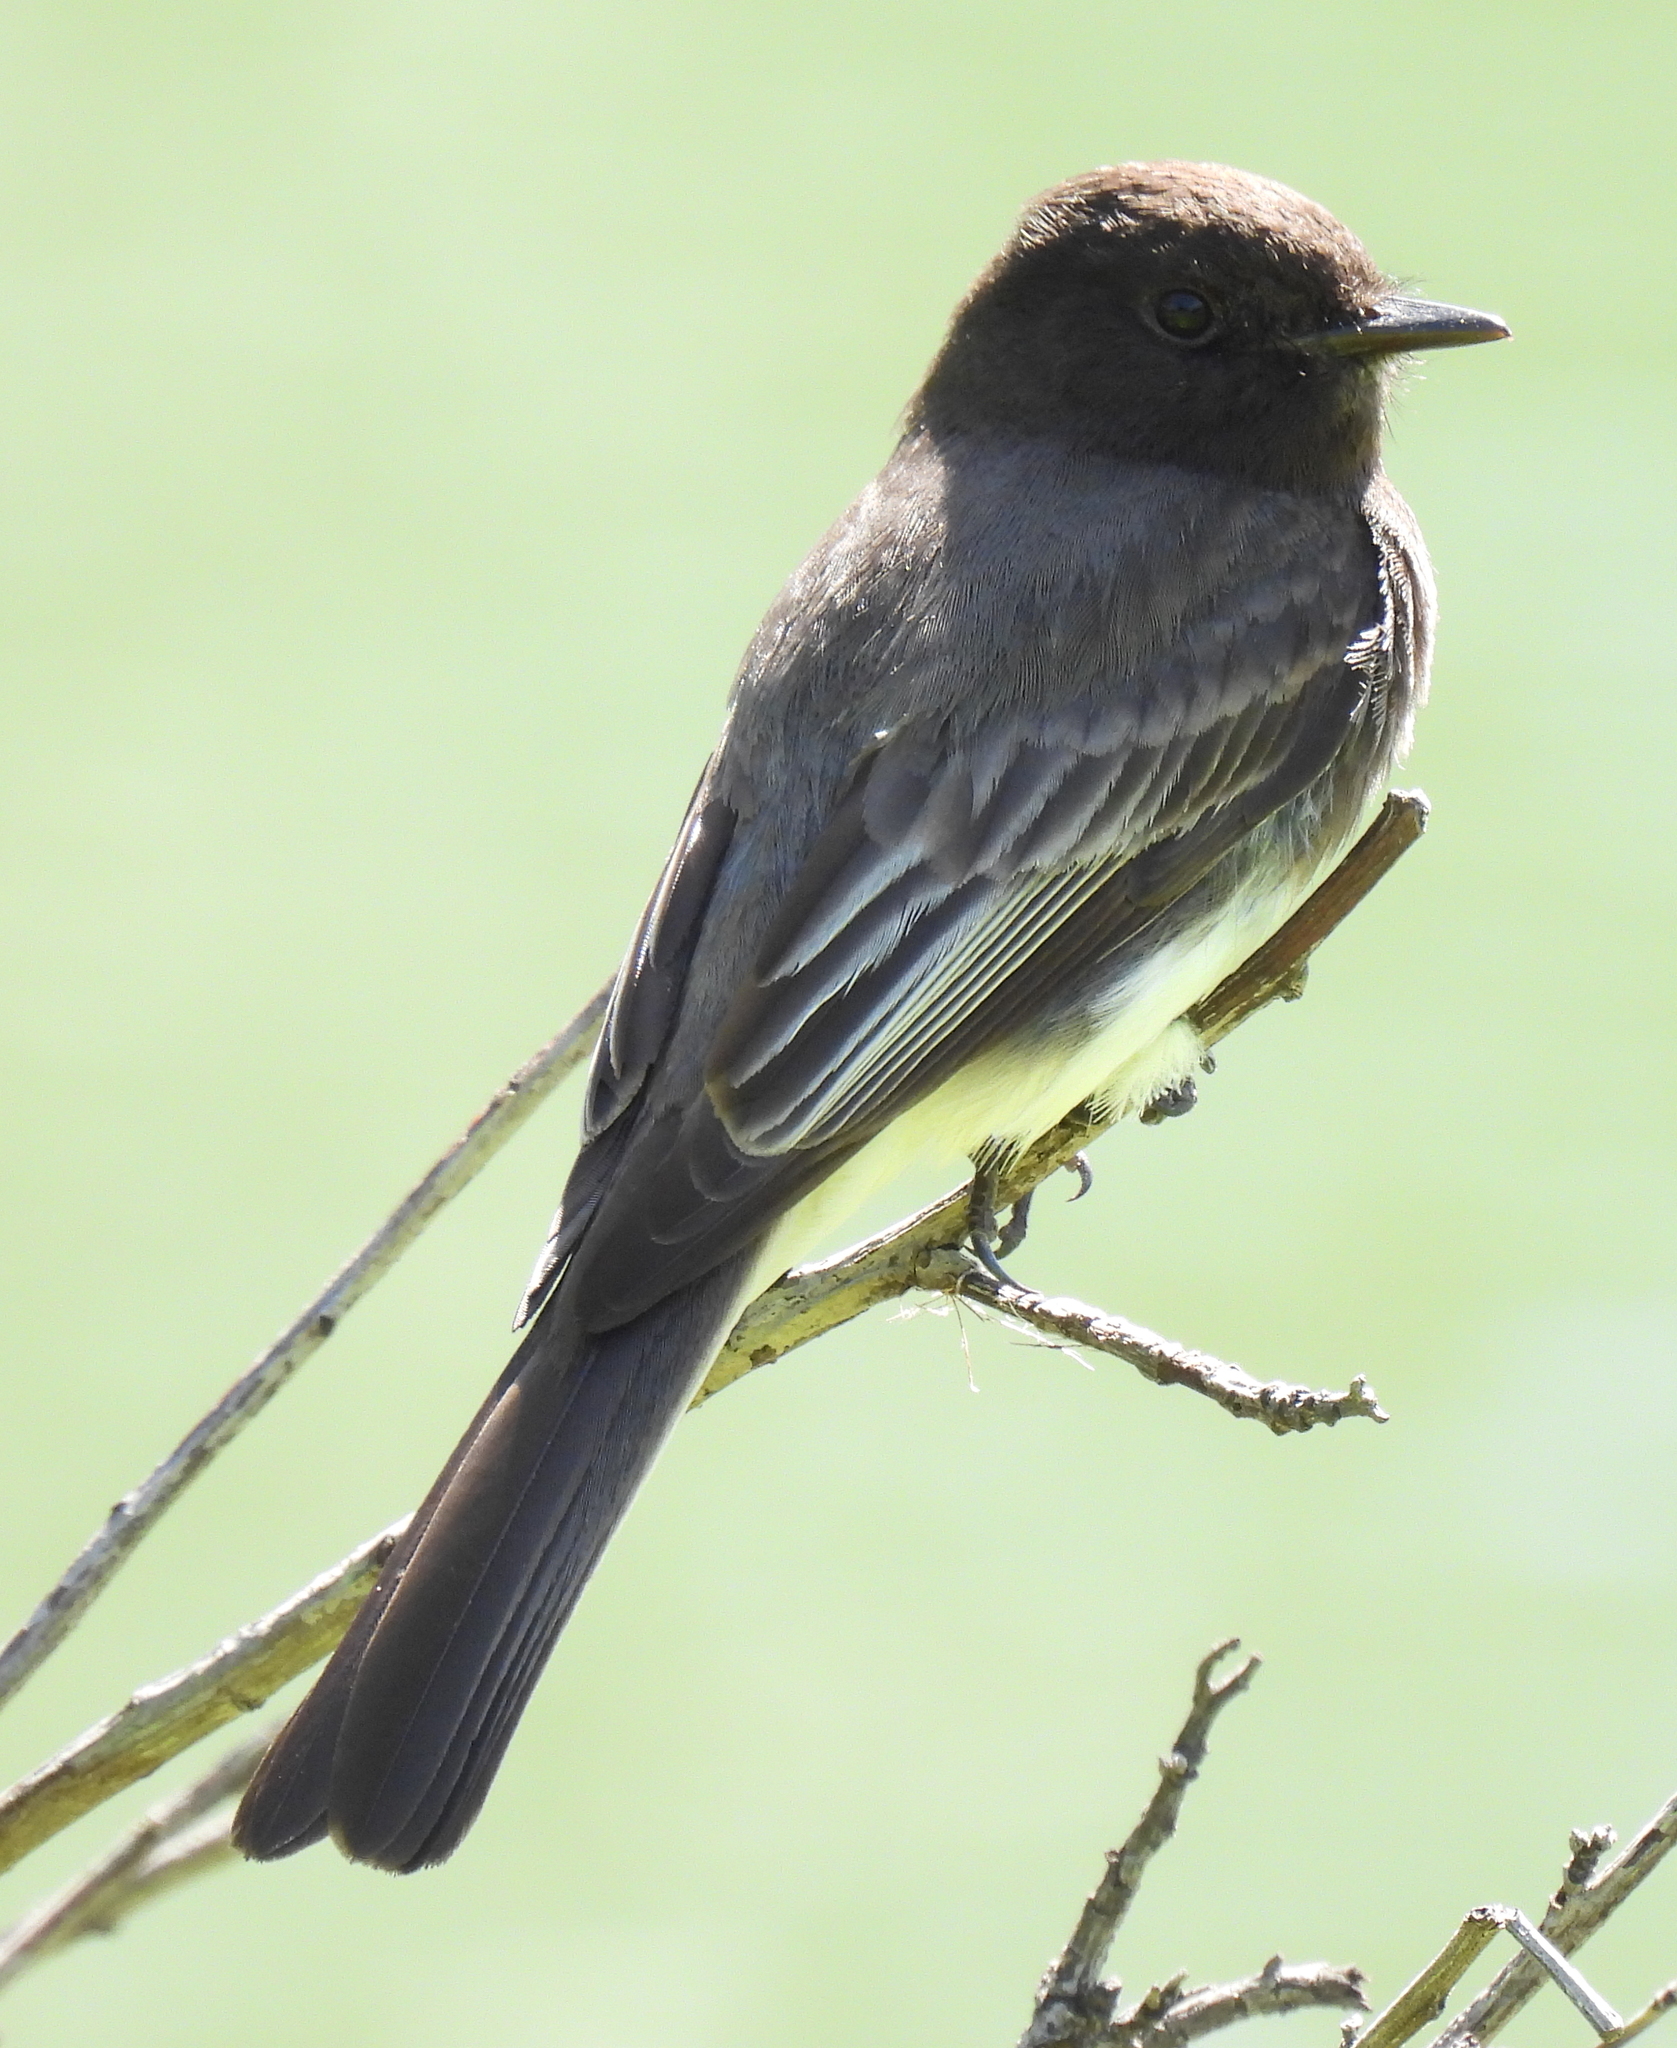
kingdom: Animalia
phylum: Chordata
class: Aves
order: Passeriformes
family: Tyrannidae
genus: Sayornis
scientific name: Sayornis nigricans
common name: Black phoebe
